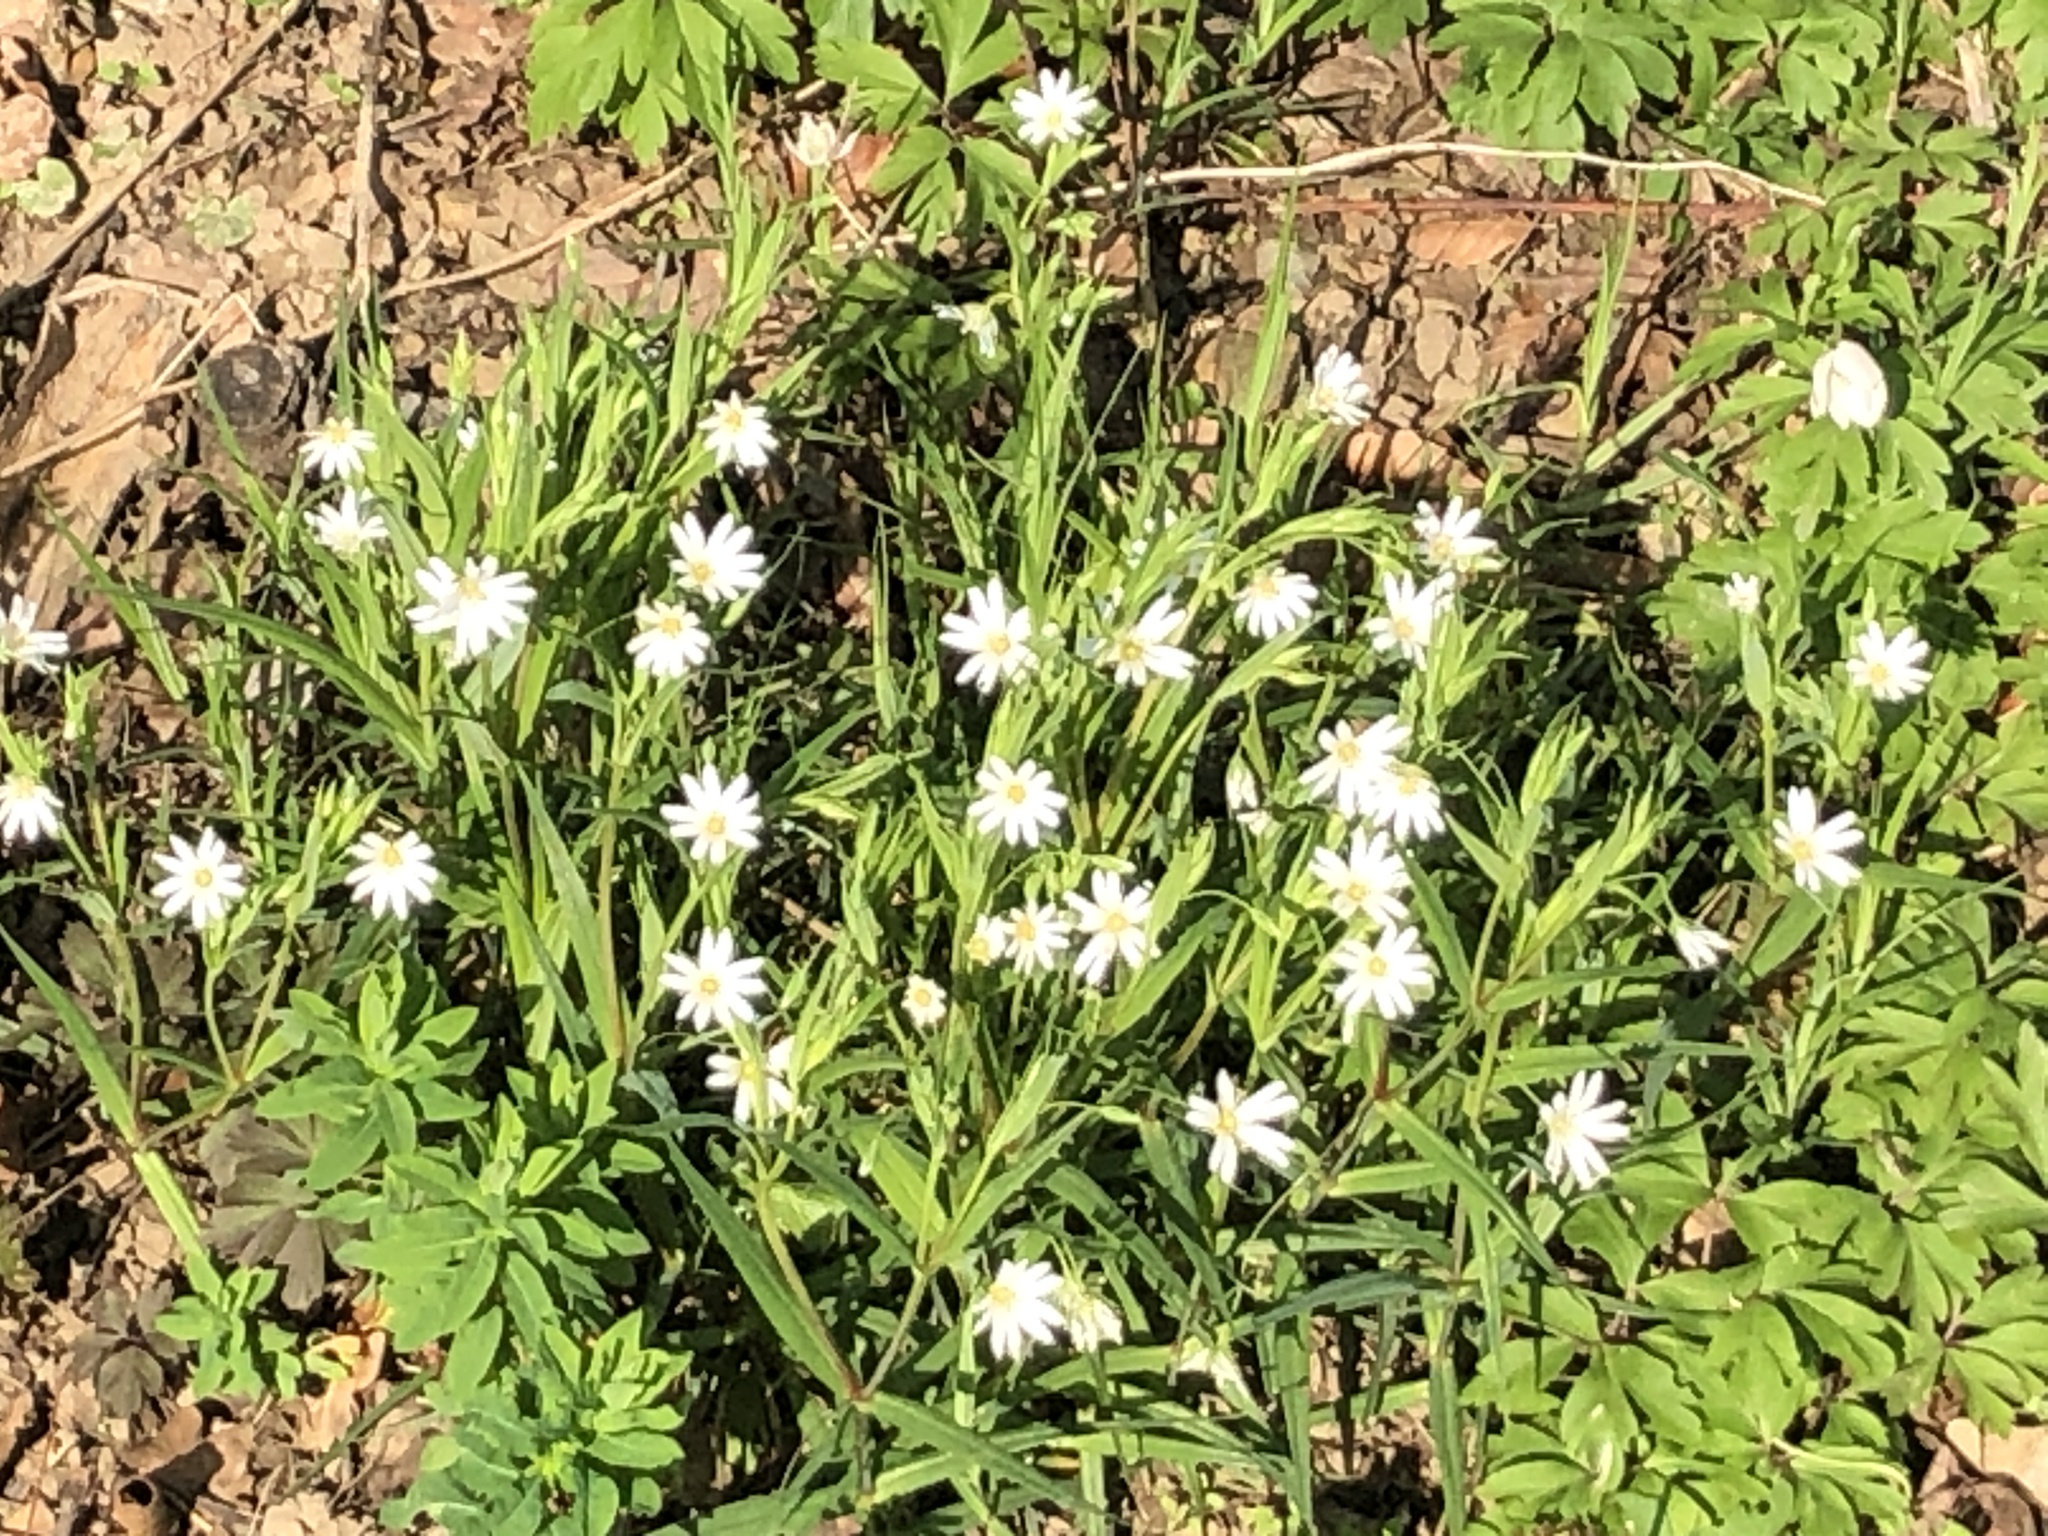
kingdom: Plantae
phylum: Tracheophyta
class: Magnoliopsida
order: Caryophyllales
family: Caryophyllaceae
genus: Rabelera
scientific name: Rabelera holostea
